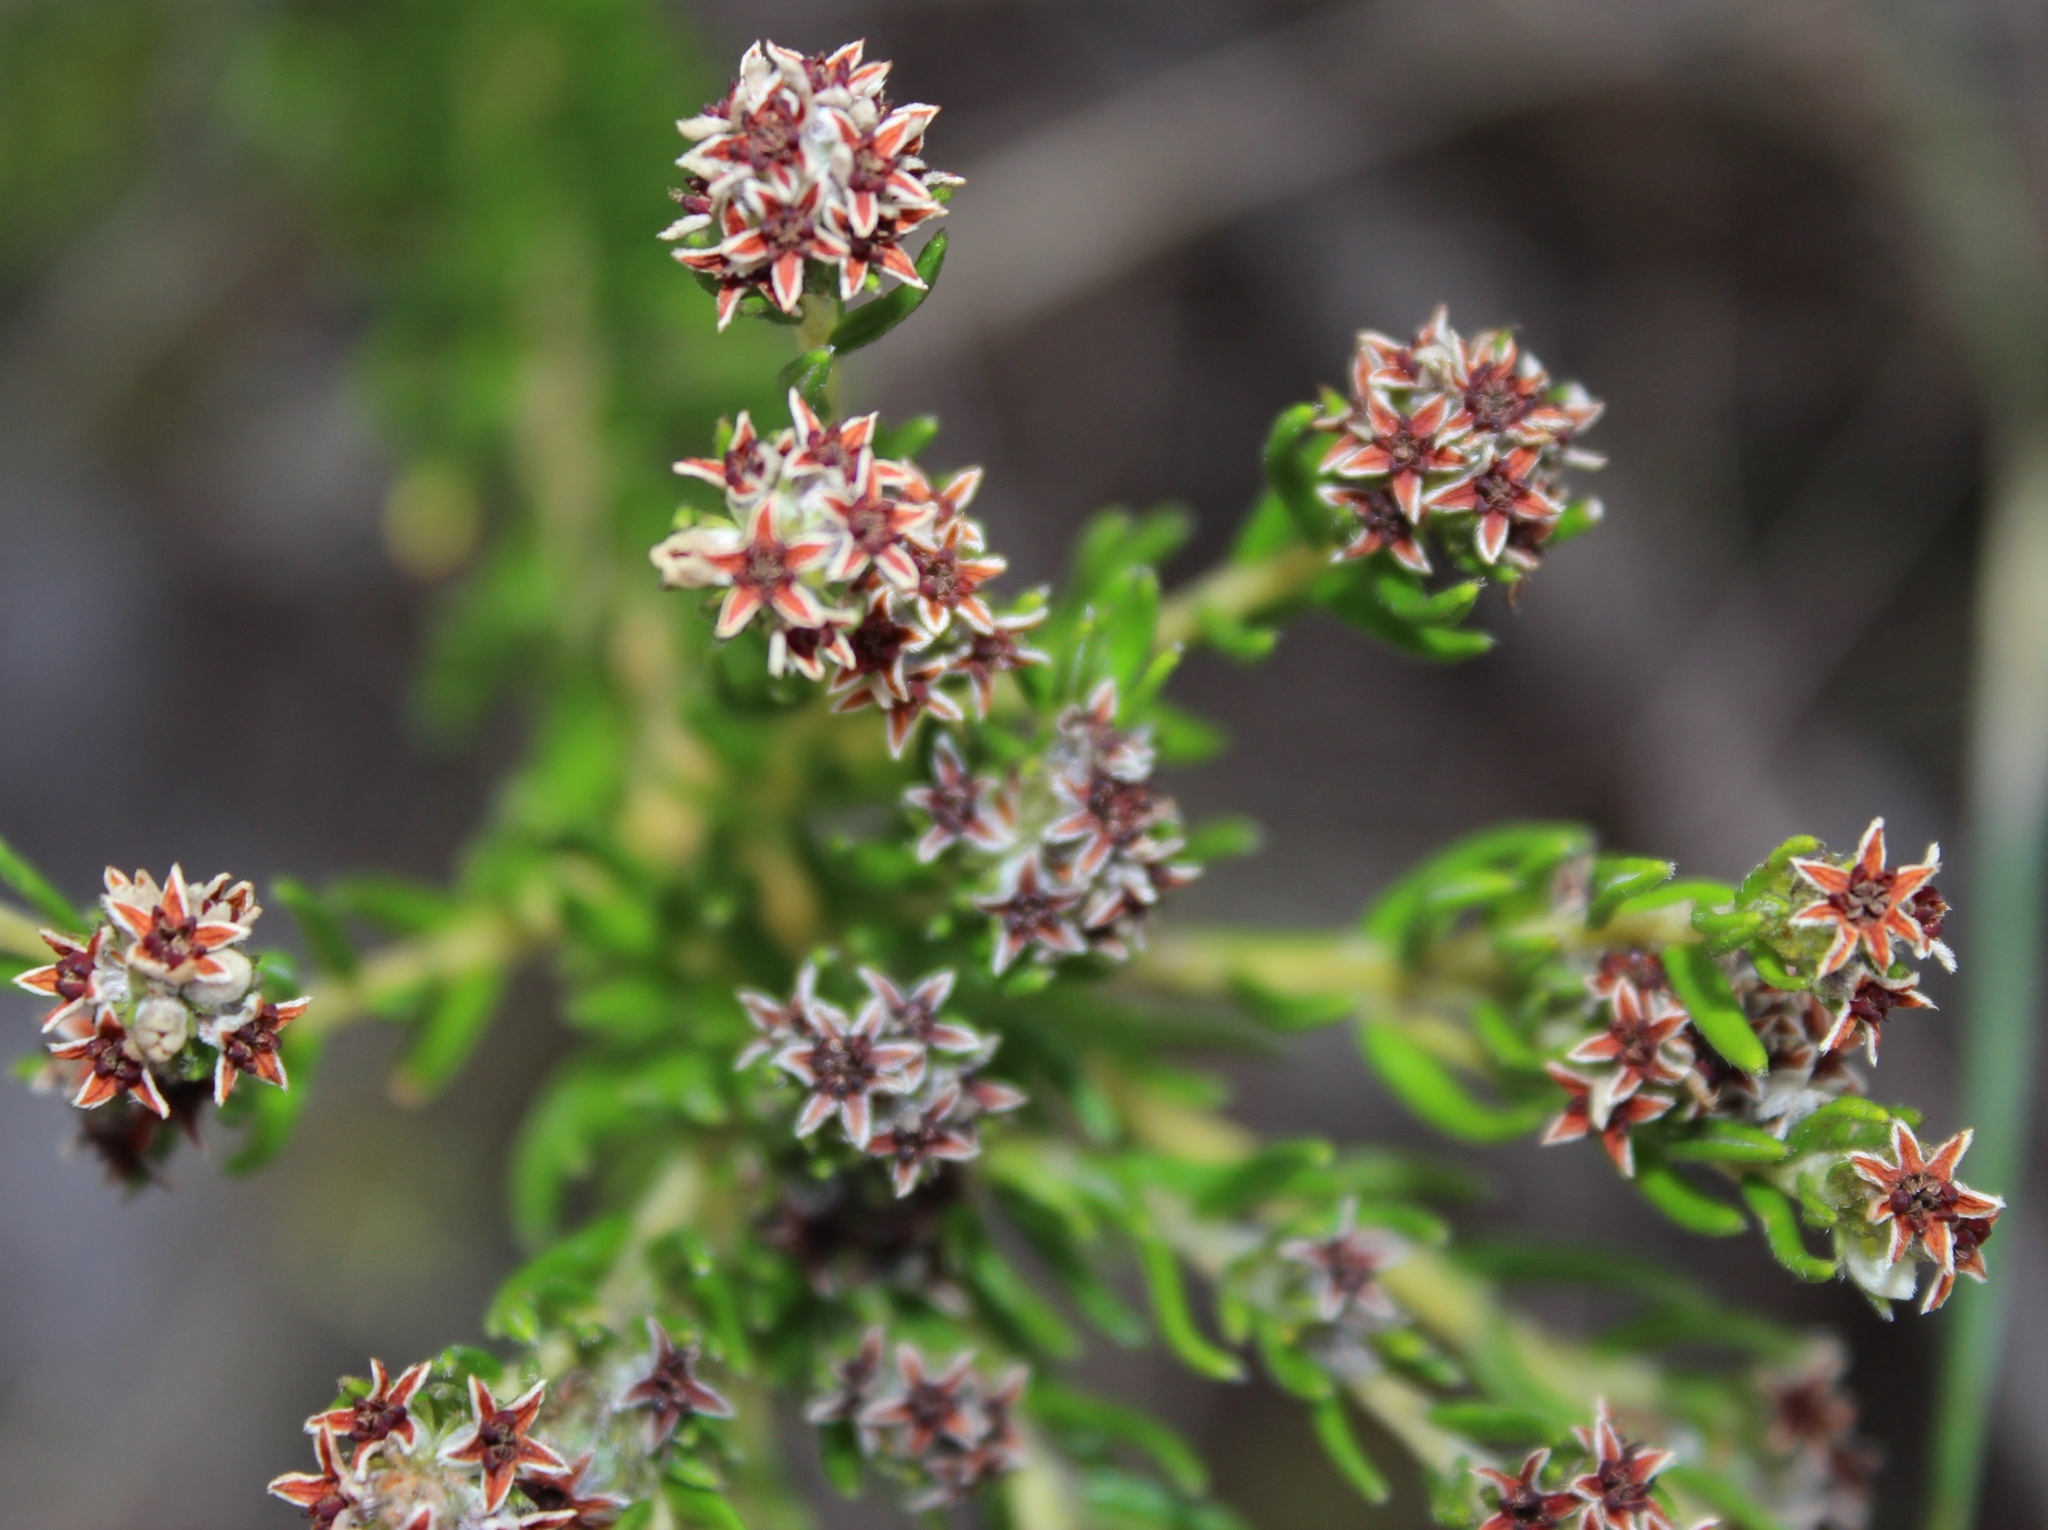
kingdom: Plantae
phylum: Tracheophyta
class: Magnoliopsida
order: Rosales
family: Rhamnaceae
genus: Phylica
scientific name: Phylica imberbis
